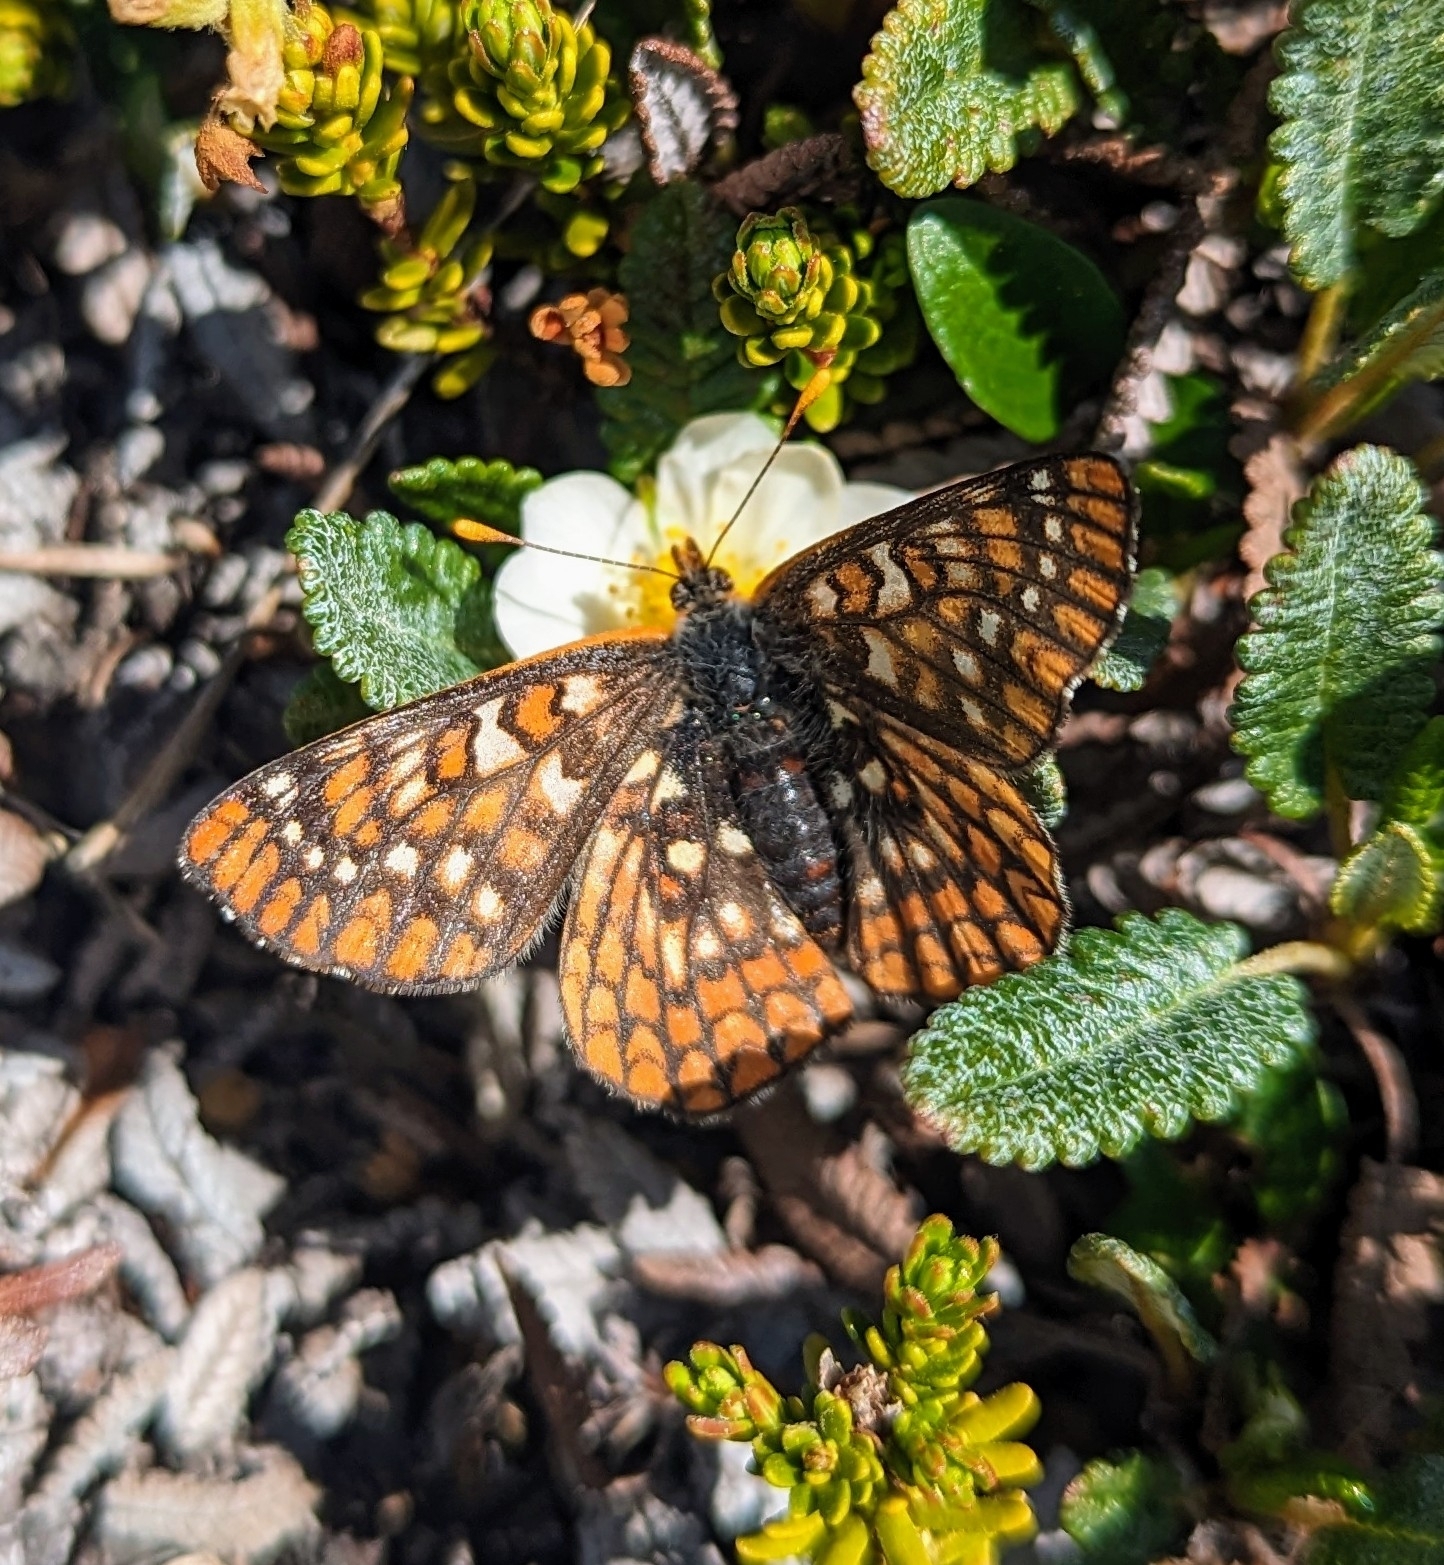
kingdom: Animalia
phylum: Arthropoda
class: Insecta
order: Lepidoptera
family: Nymphalidae
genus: Occidryas
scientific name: Occidryas anicia
